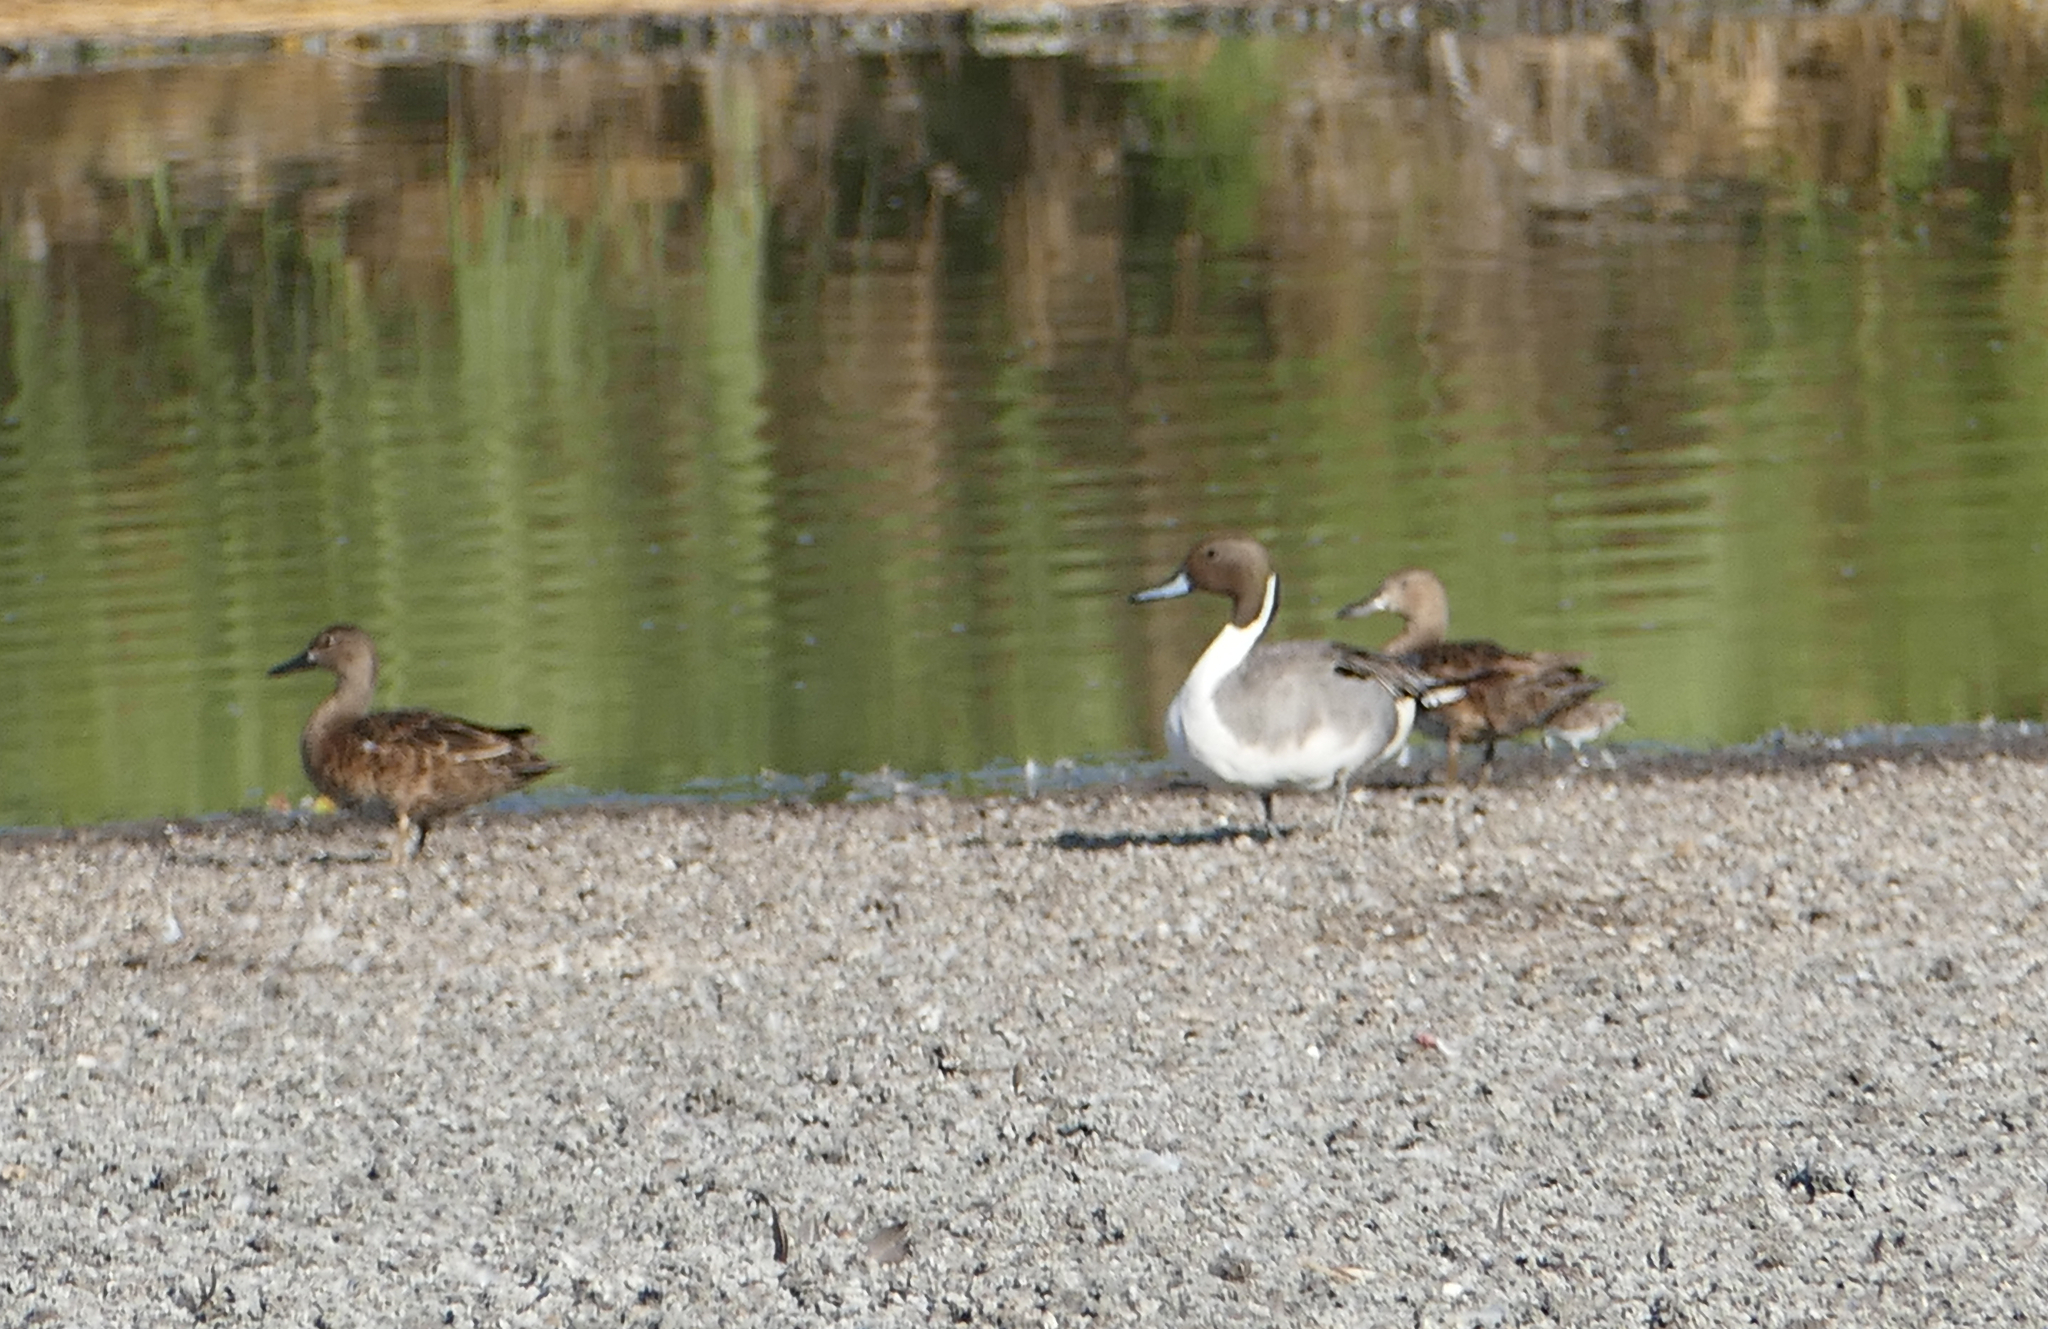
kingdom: Animalia
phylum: Chordata
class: Aves
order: Anseriformes
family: Anatidae
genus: Anas
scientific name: Anas acuta
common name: Northern pintail
